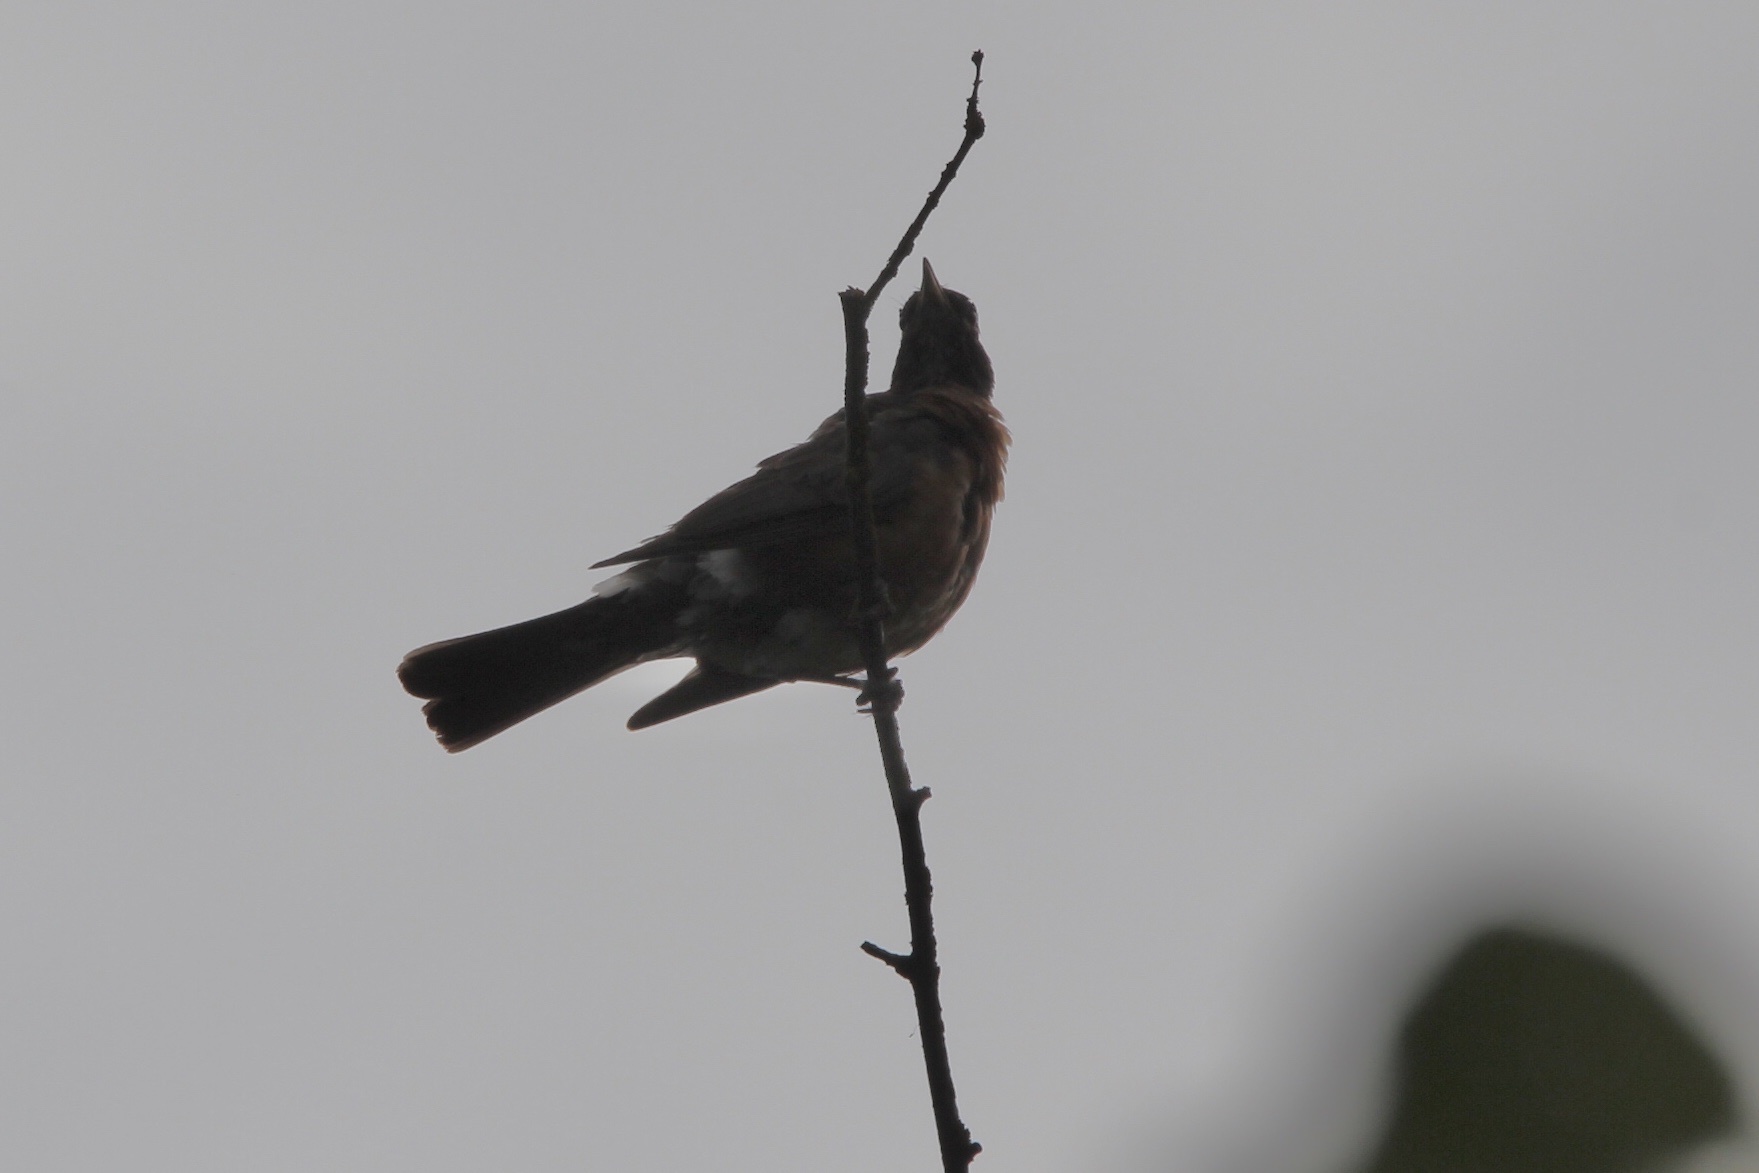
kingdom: Animalia
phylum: Chordata
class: Aves
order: Passeriformes
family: Turdidae
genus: Turdus
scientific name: Turdus migratorius
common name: American robin
